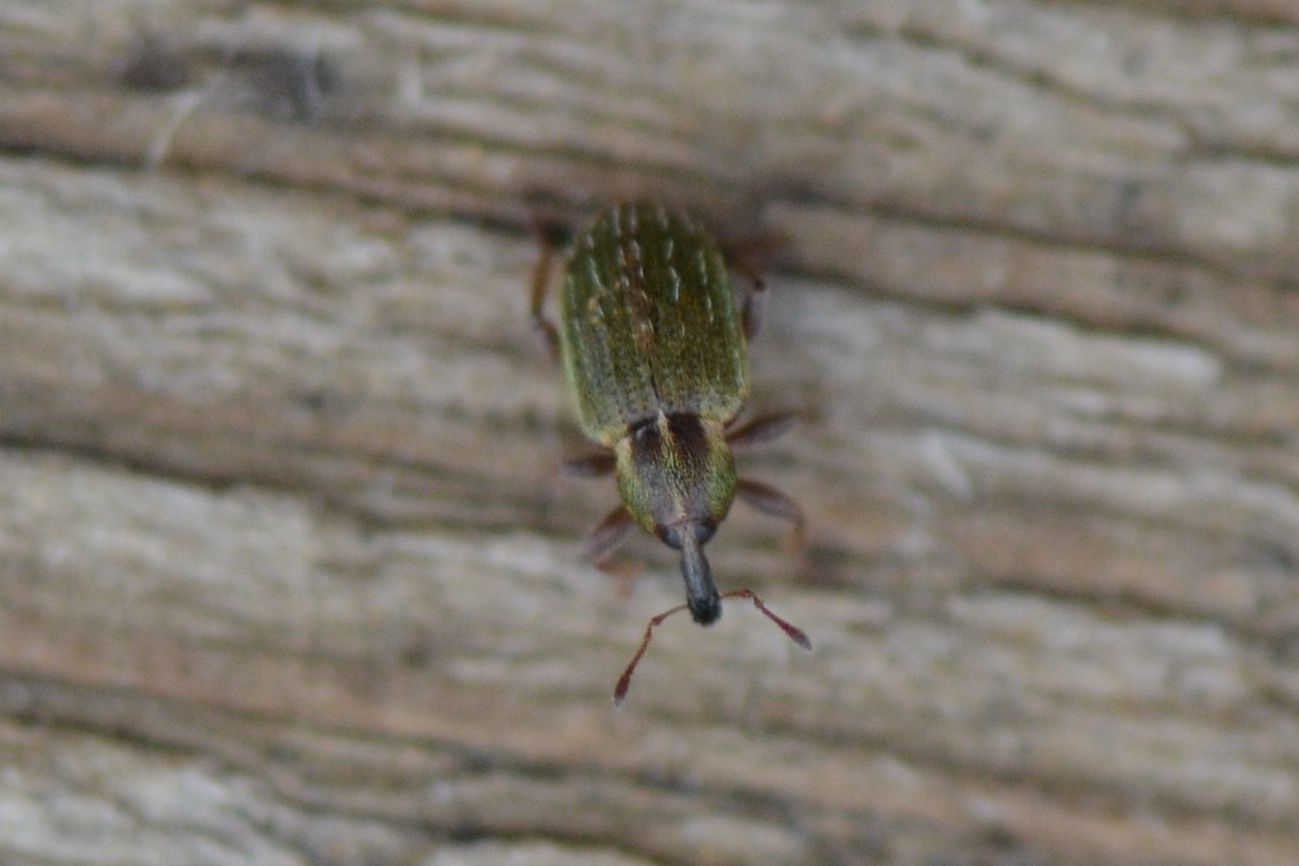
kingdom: Animalia
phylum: Arthropoda
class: Insecta
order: Coleoptera
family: Curculionidae
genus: Hypera
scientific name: Hypera nigrirostris
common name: Black-beaked green weevil
